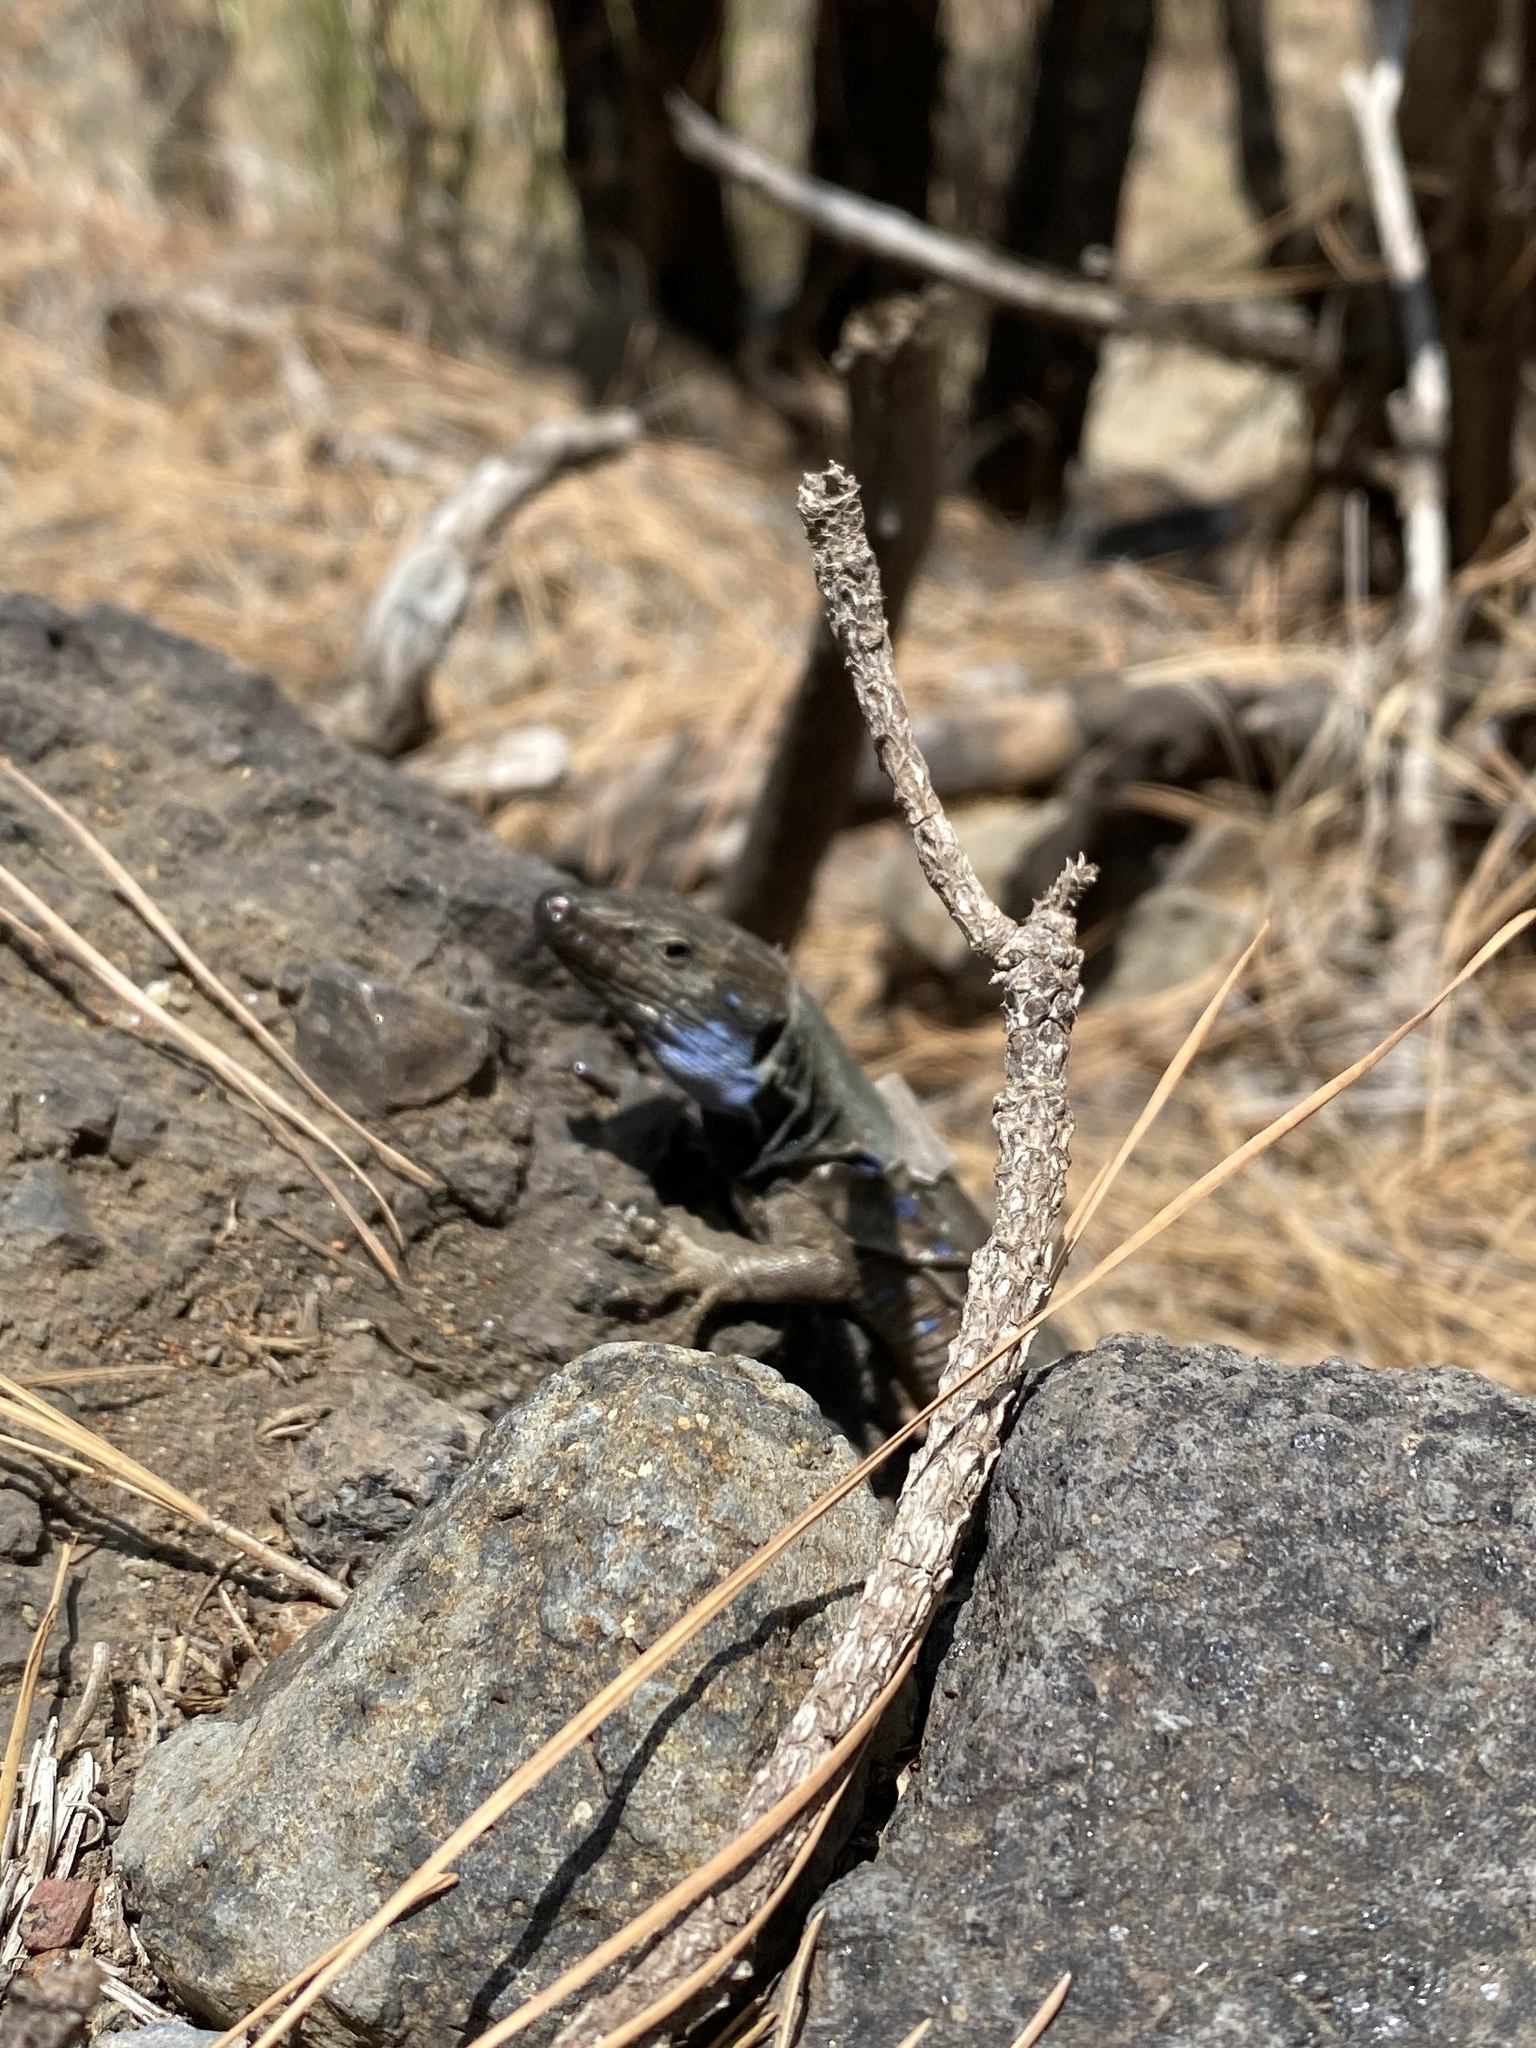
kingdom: Animalia
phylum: Chordata
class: Squamata
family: Lacertidae
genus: Gallotia
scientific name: Gallotia galloti
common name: Gallot's lizard
